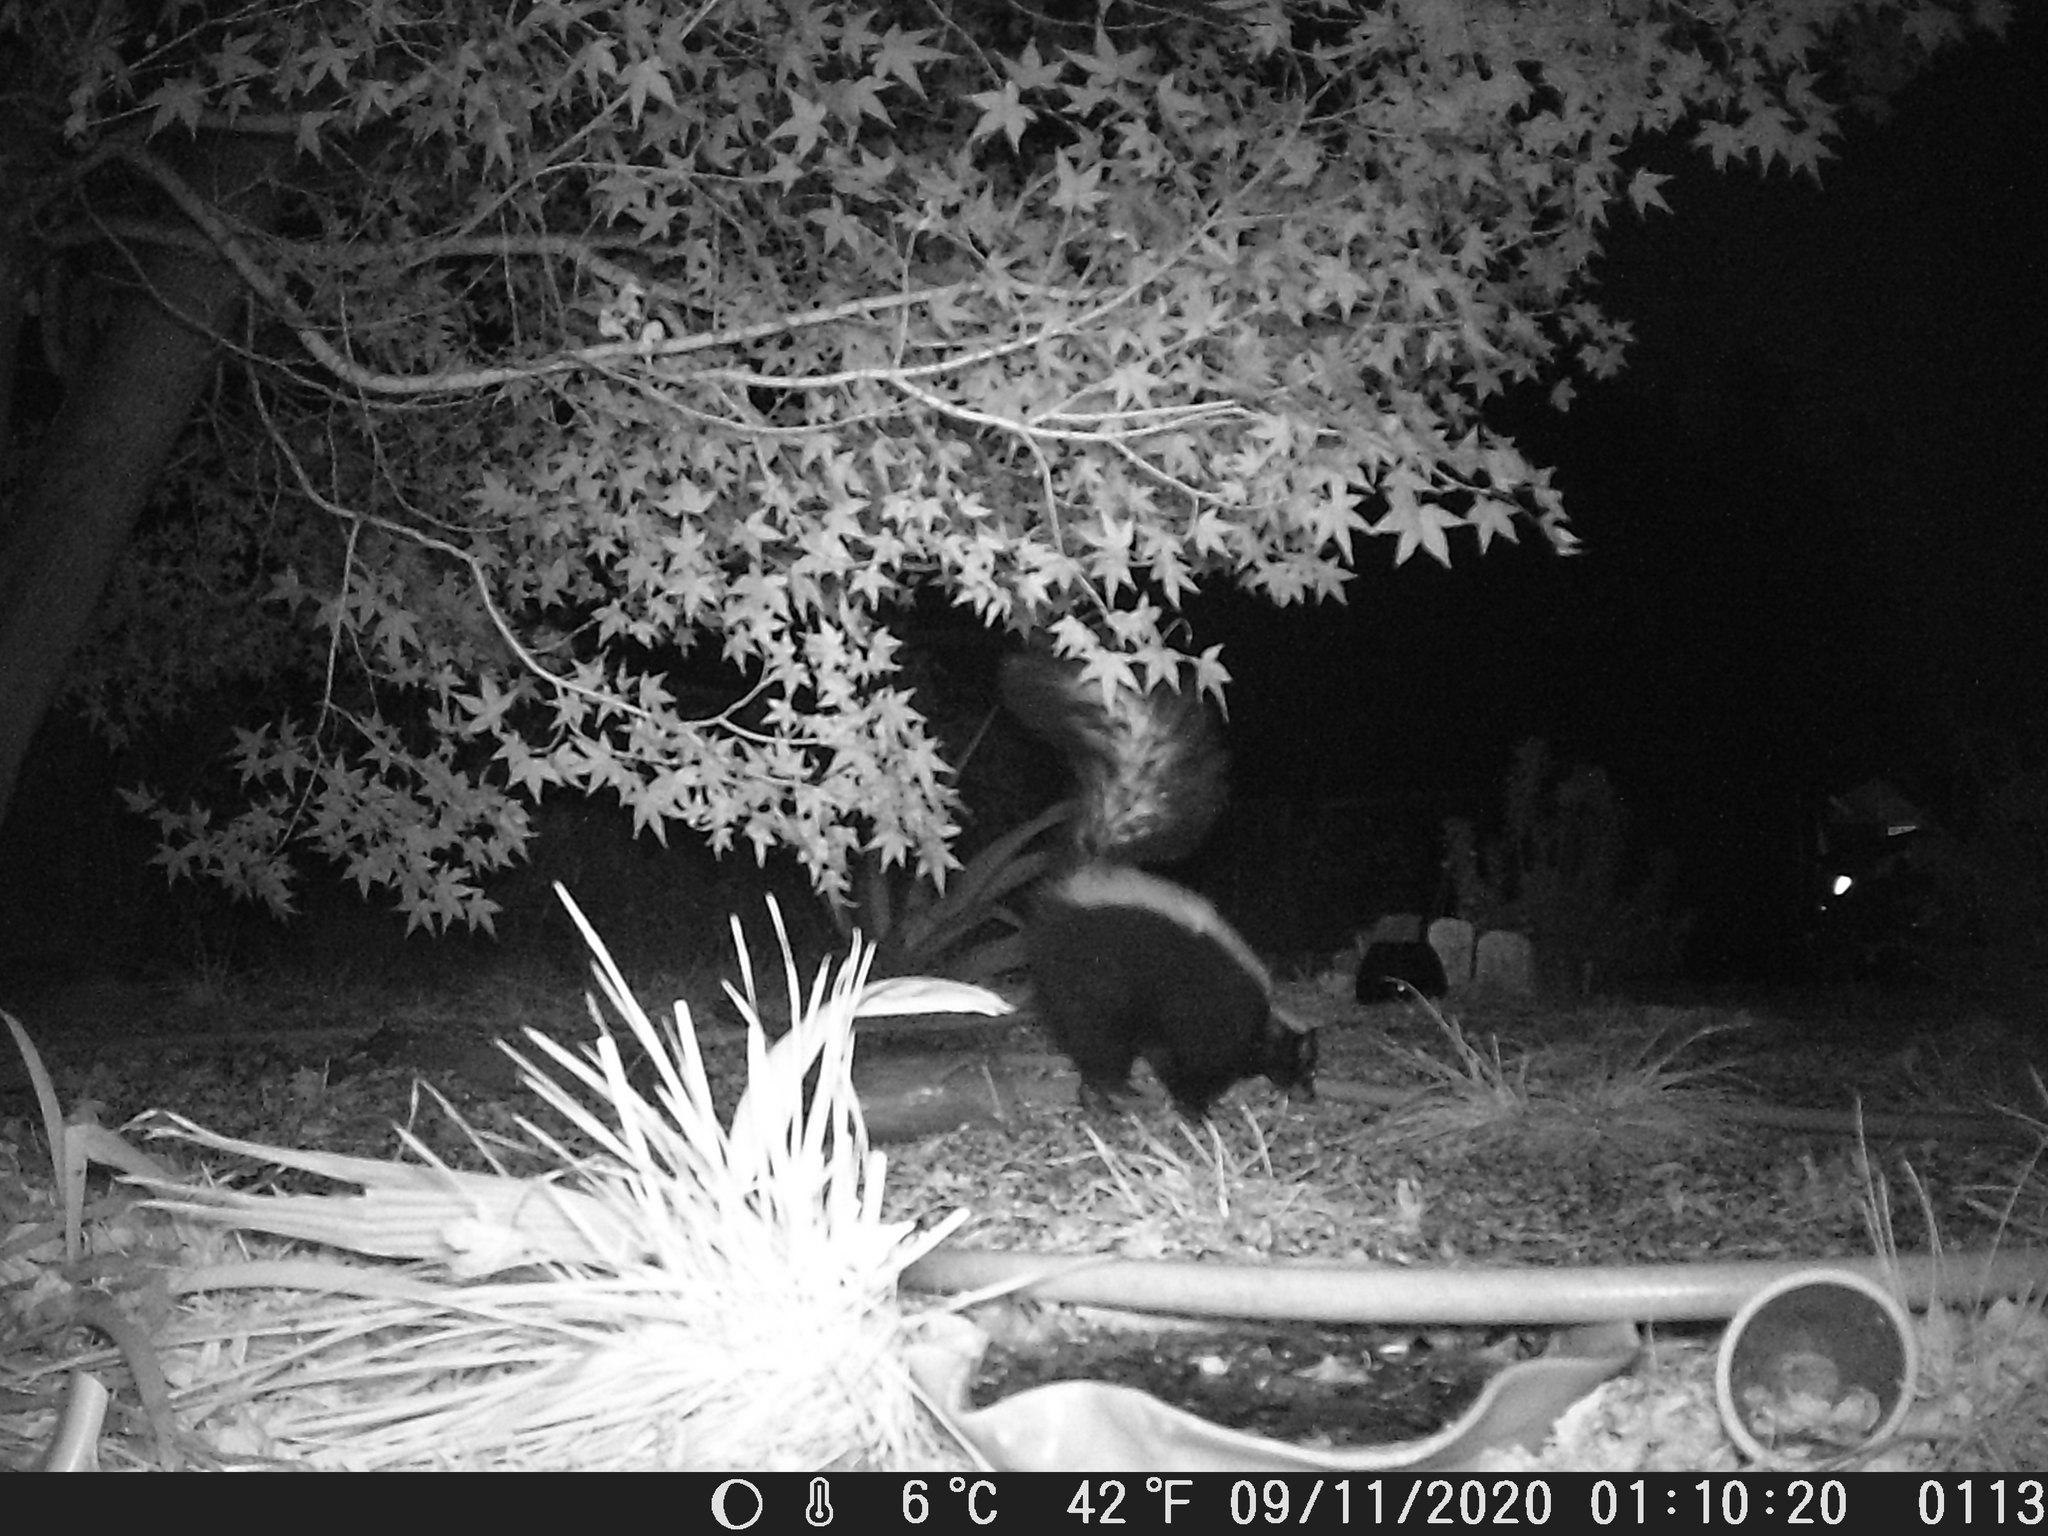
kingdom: Animalia
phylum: Chordata
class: Mammalia
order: Carnivora
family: Mephitidae
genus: Mephitis
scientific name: Mephitis mephitis
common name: Striped skunk
